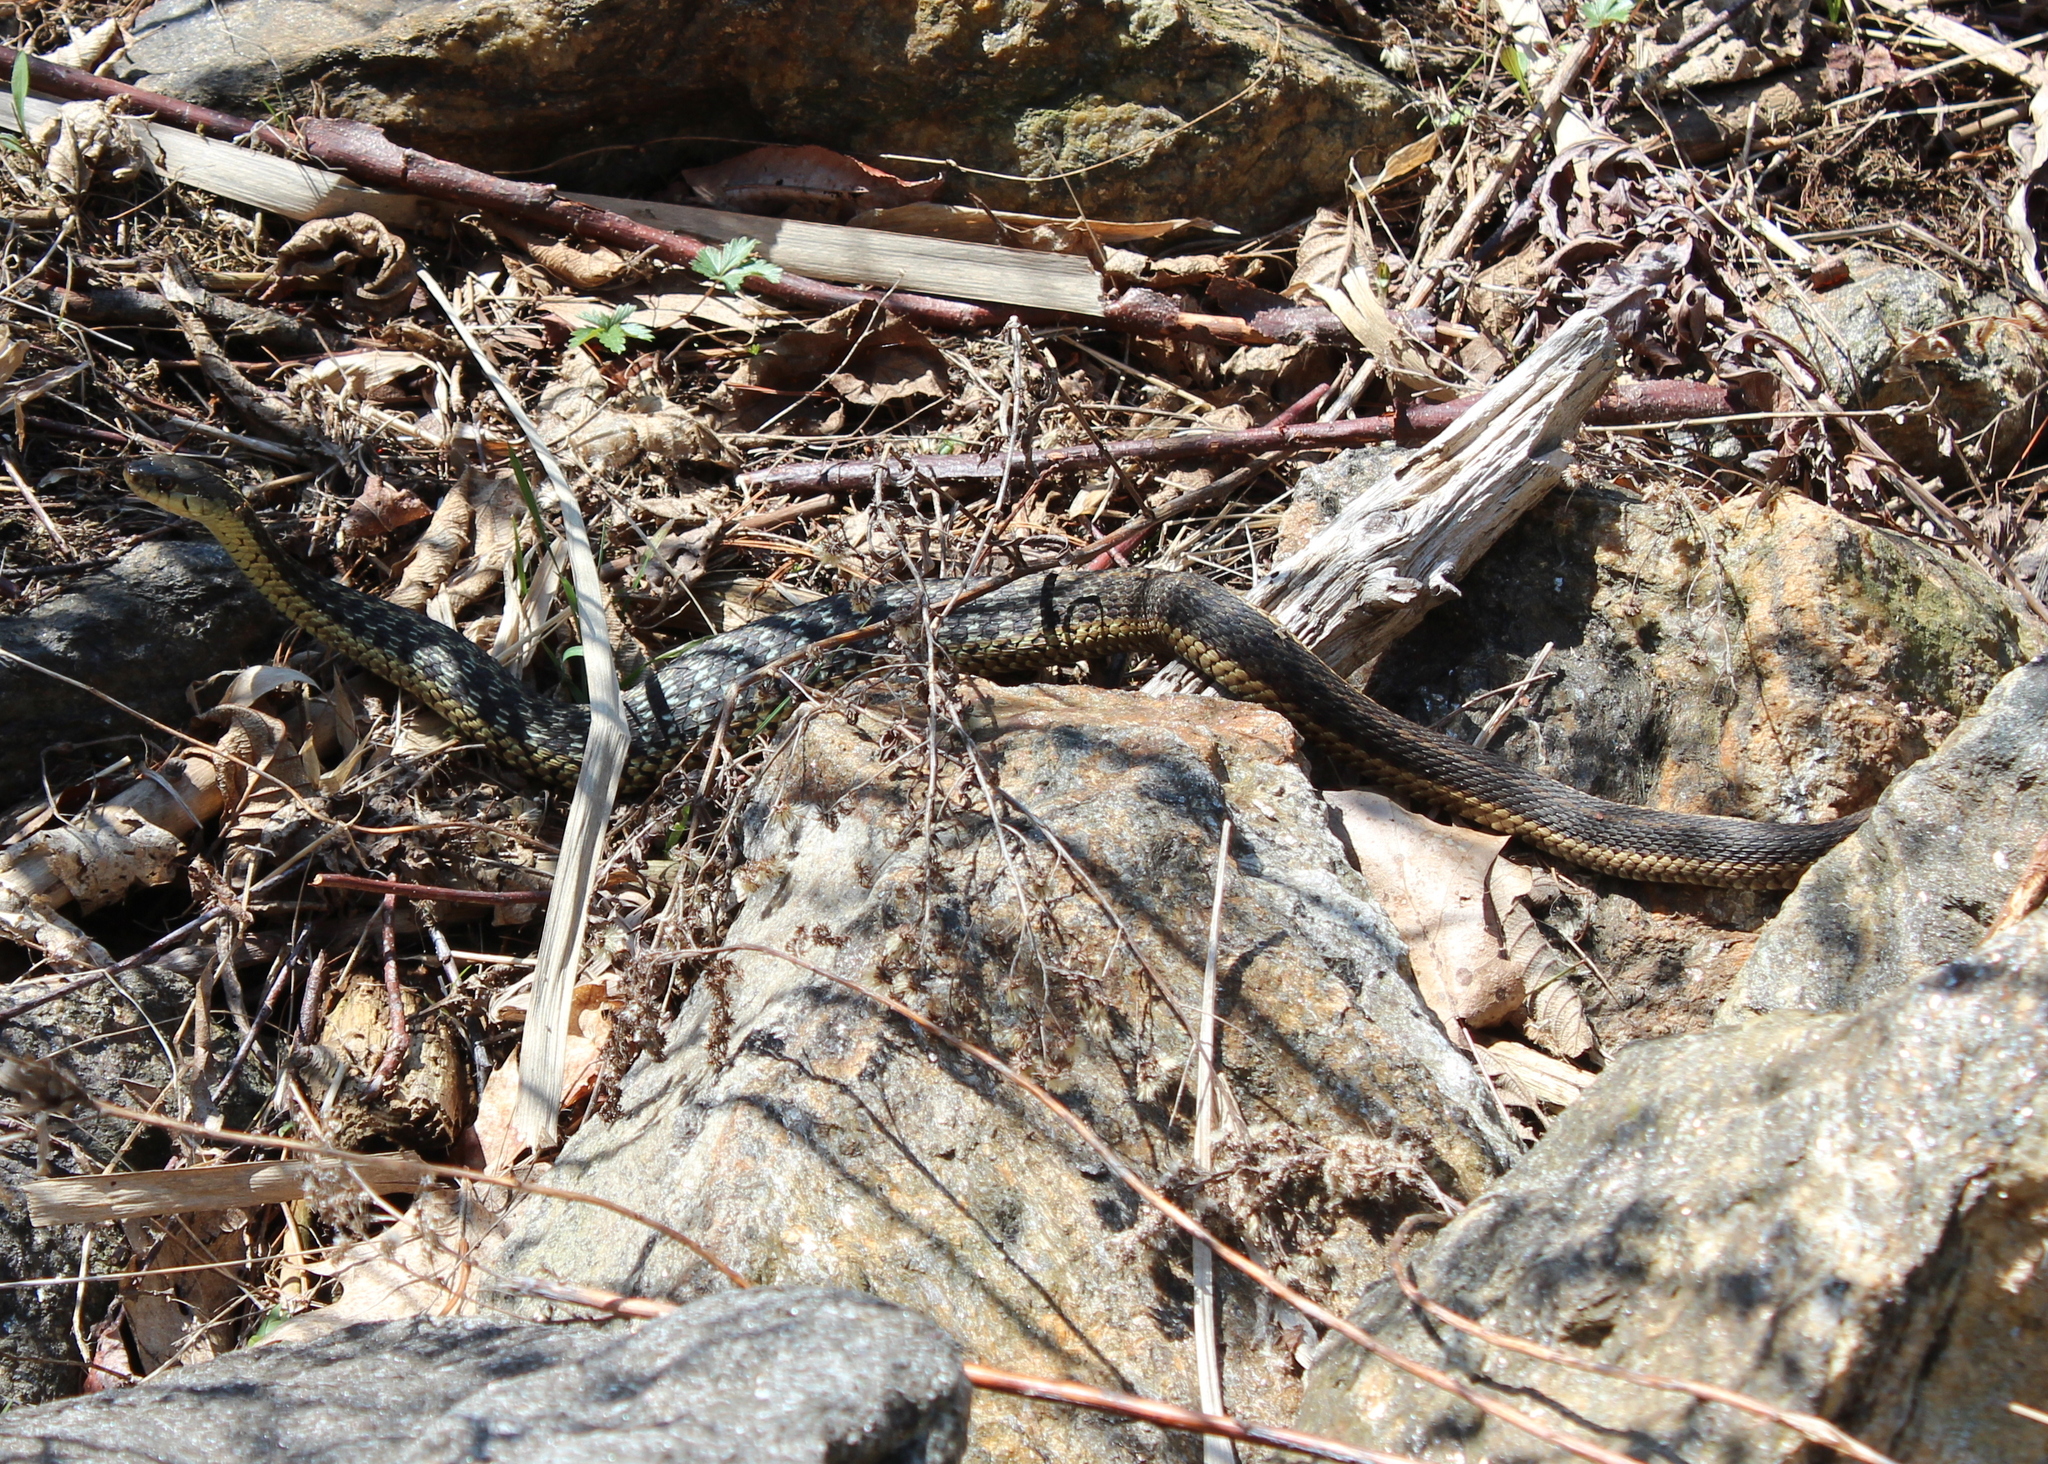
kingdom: Animalia
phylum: Chordata
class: Squamata
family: Colubridae
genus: Thamnophis
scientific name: Thamnophis sirtalis
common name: Common garter snake
